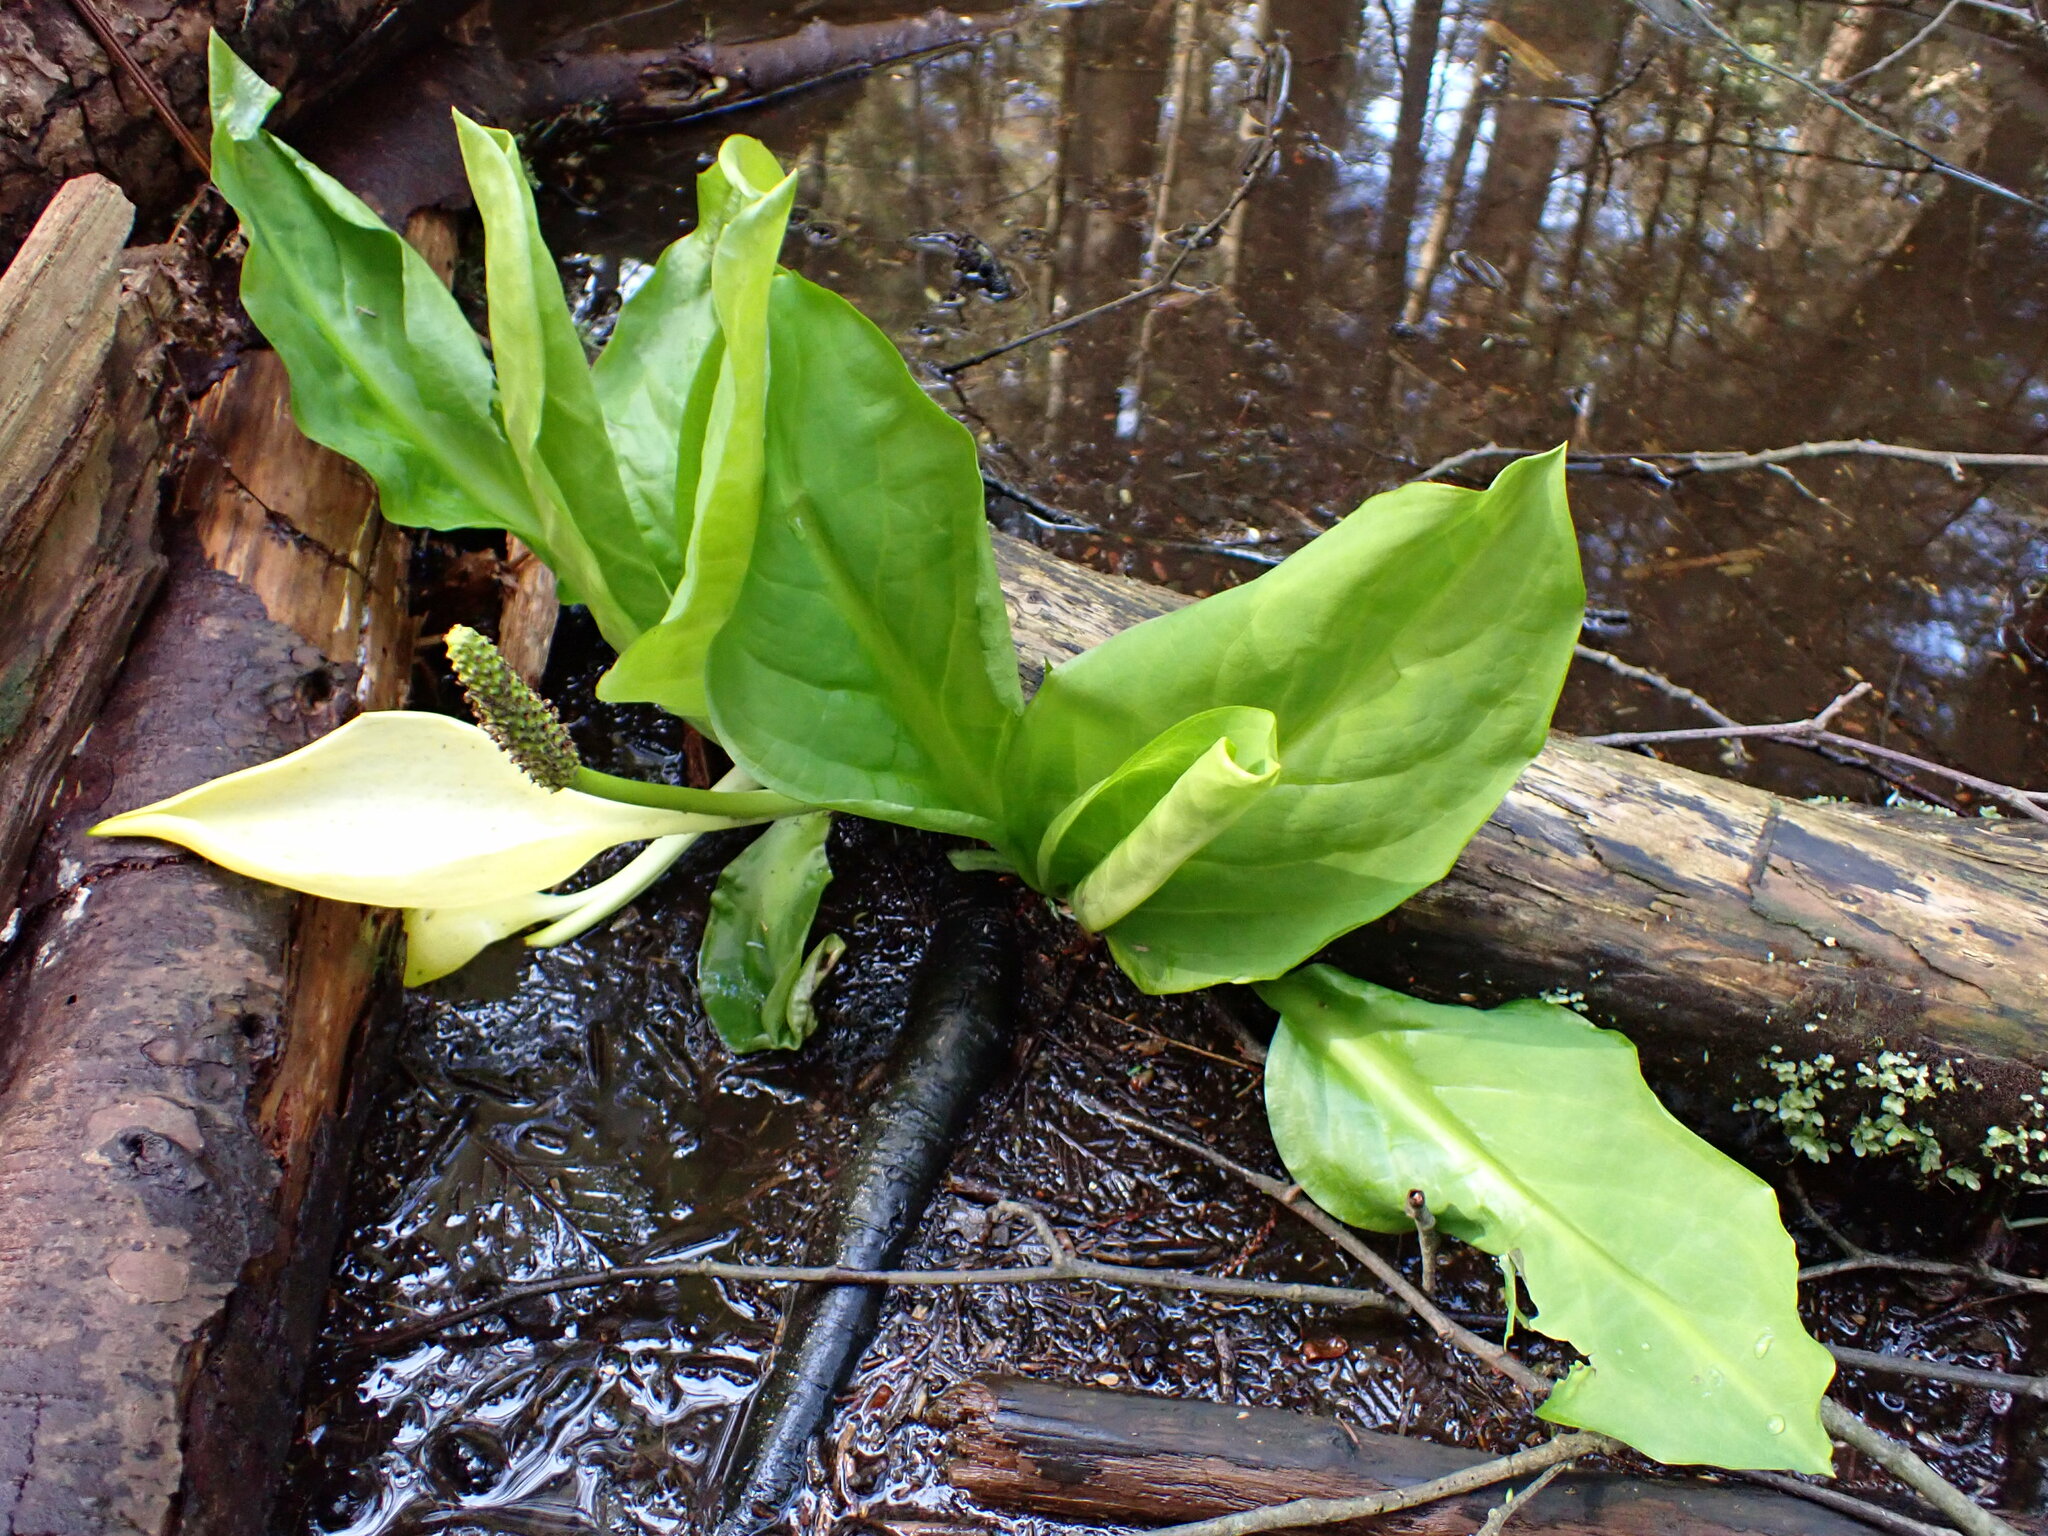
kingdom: Plantae
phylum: Tracheophyta
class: Liliopsida
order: Alismatales
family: Araceae
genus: Lysichiton
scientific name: Lysichiton americanus
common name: American skunk cabbage
